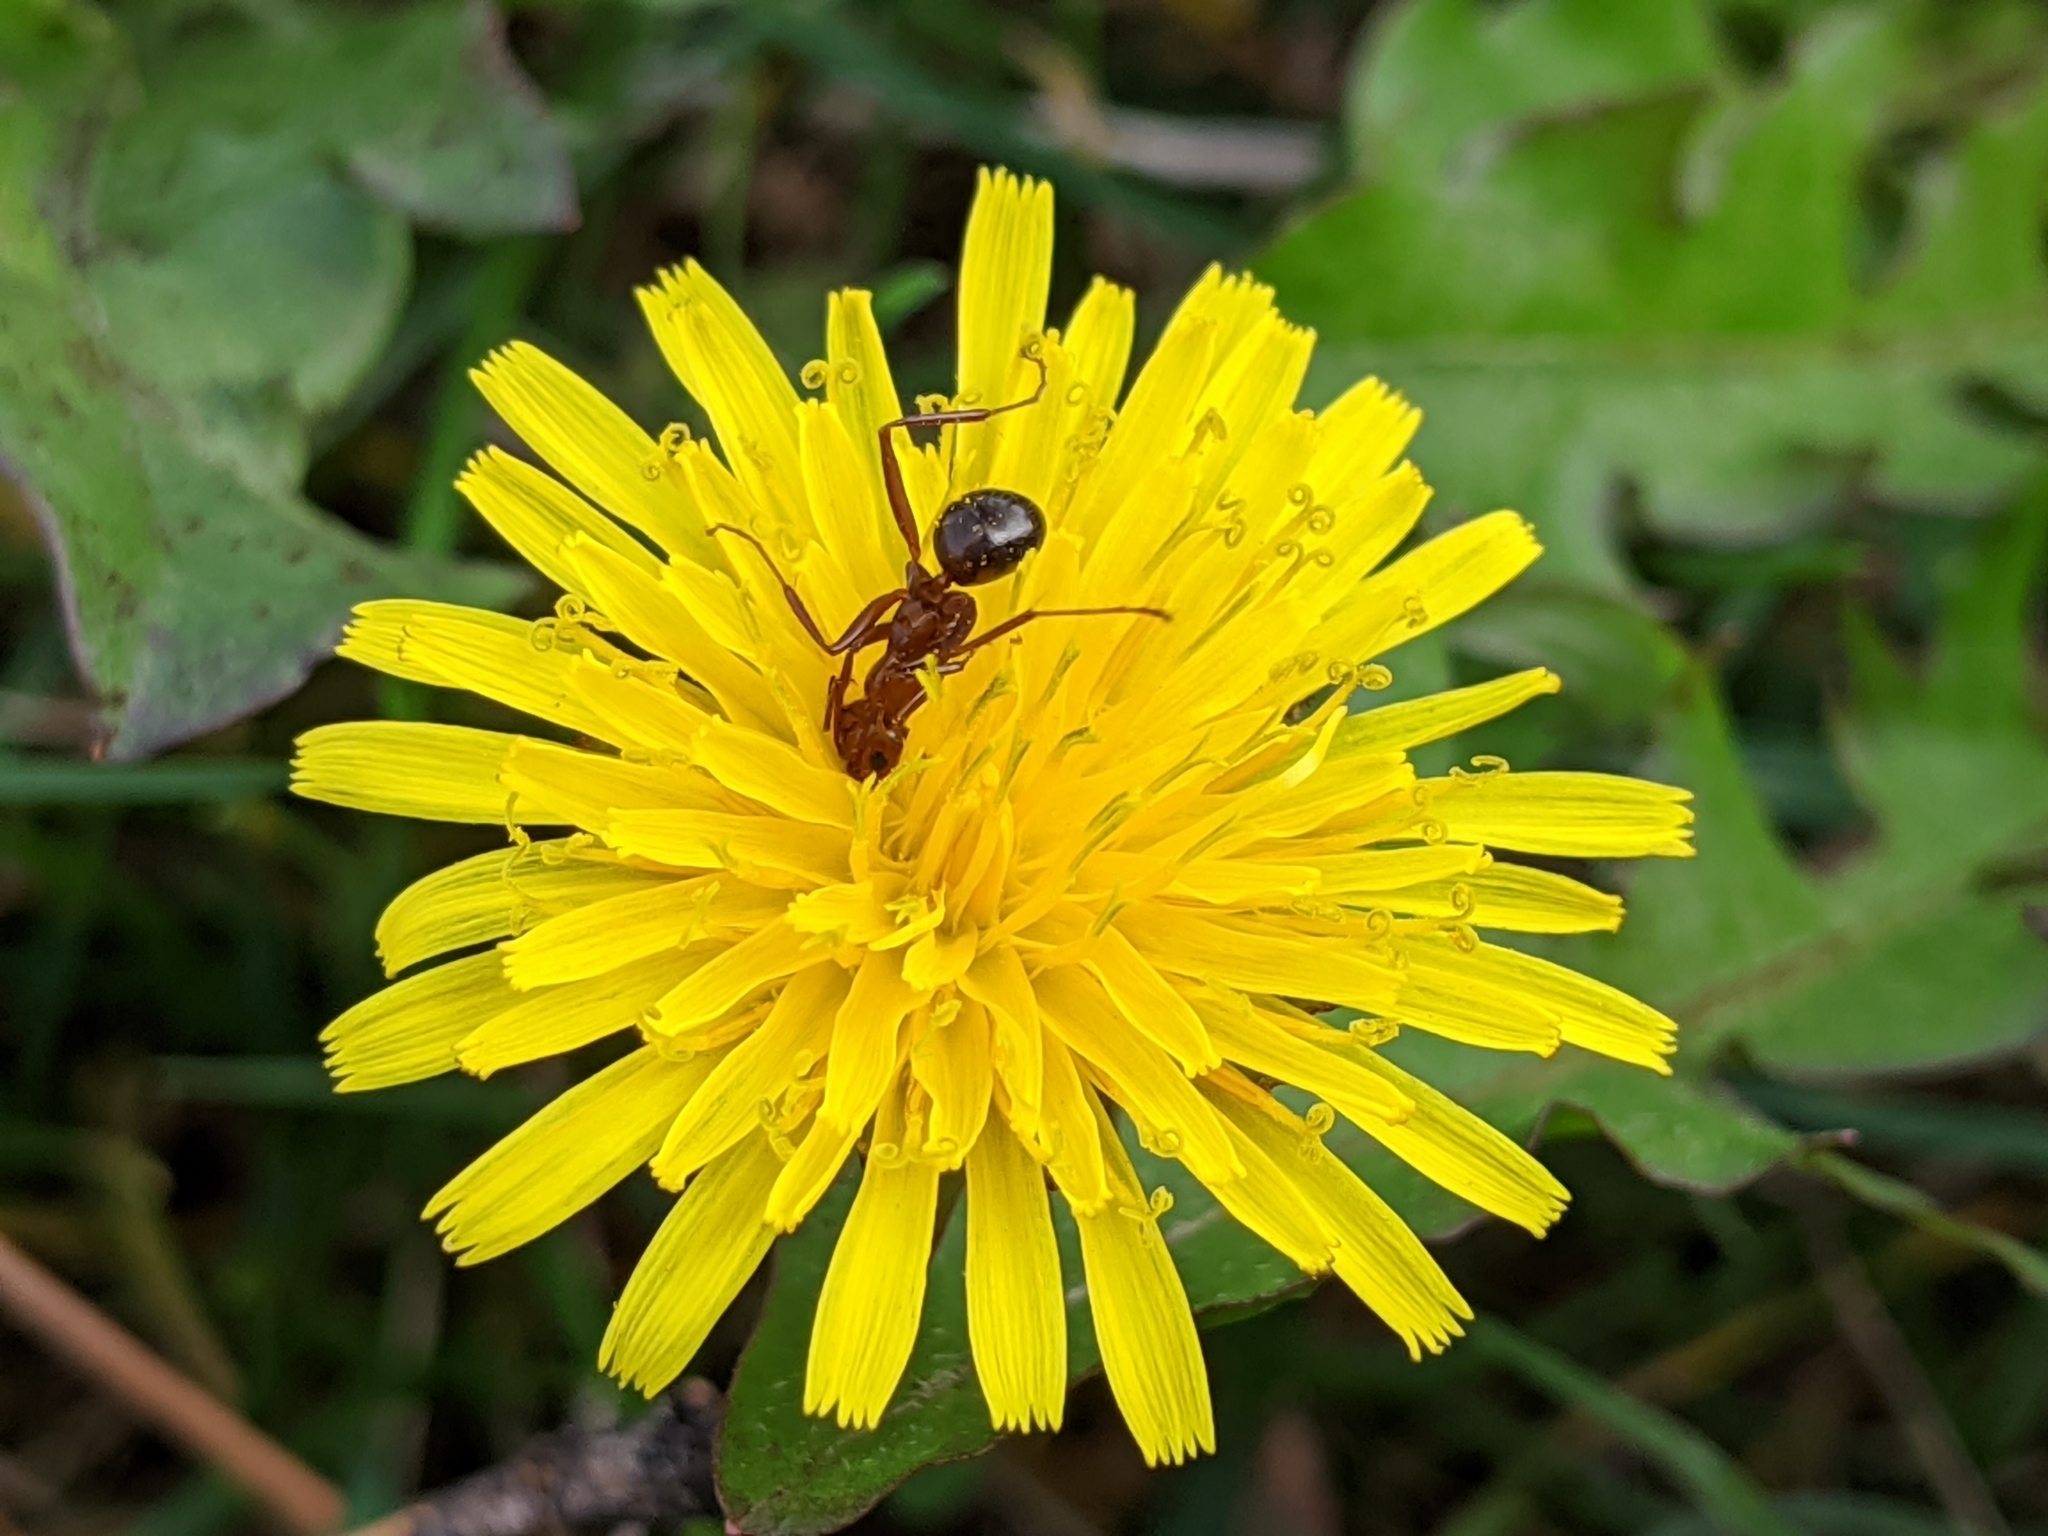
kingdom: Plantae
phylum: Tracheophyta
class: Magnoliopsida
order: Asterales
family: Asteraceae
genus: Taraxacum
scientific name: Taraxacum officinale
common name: Common dandelion
